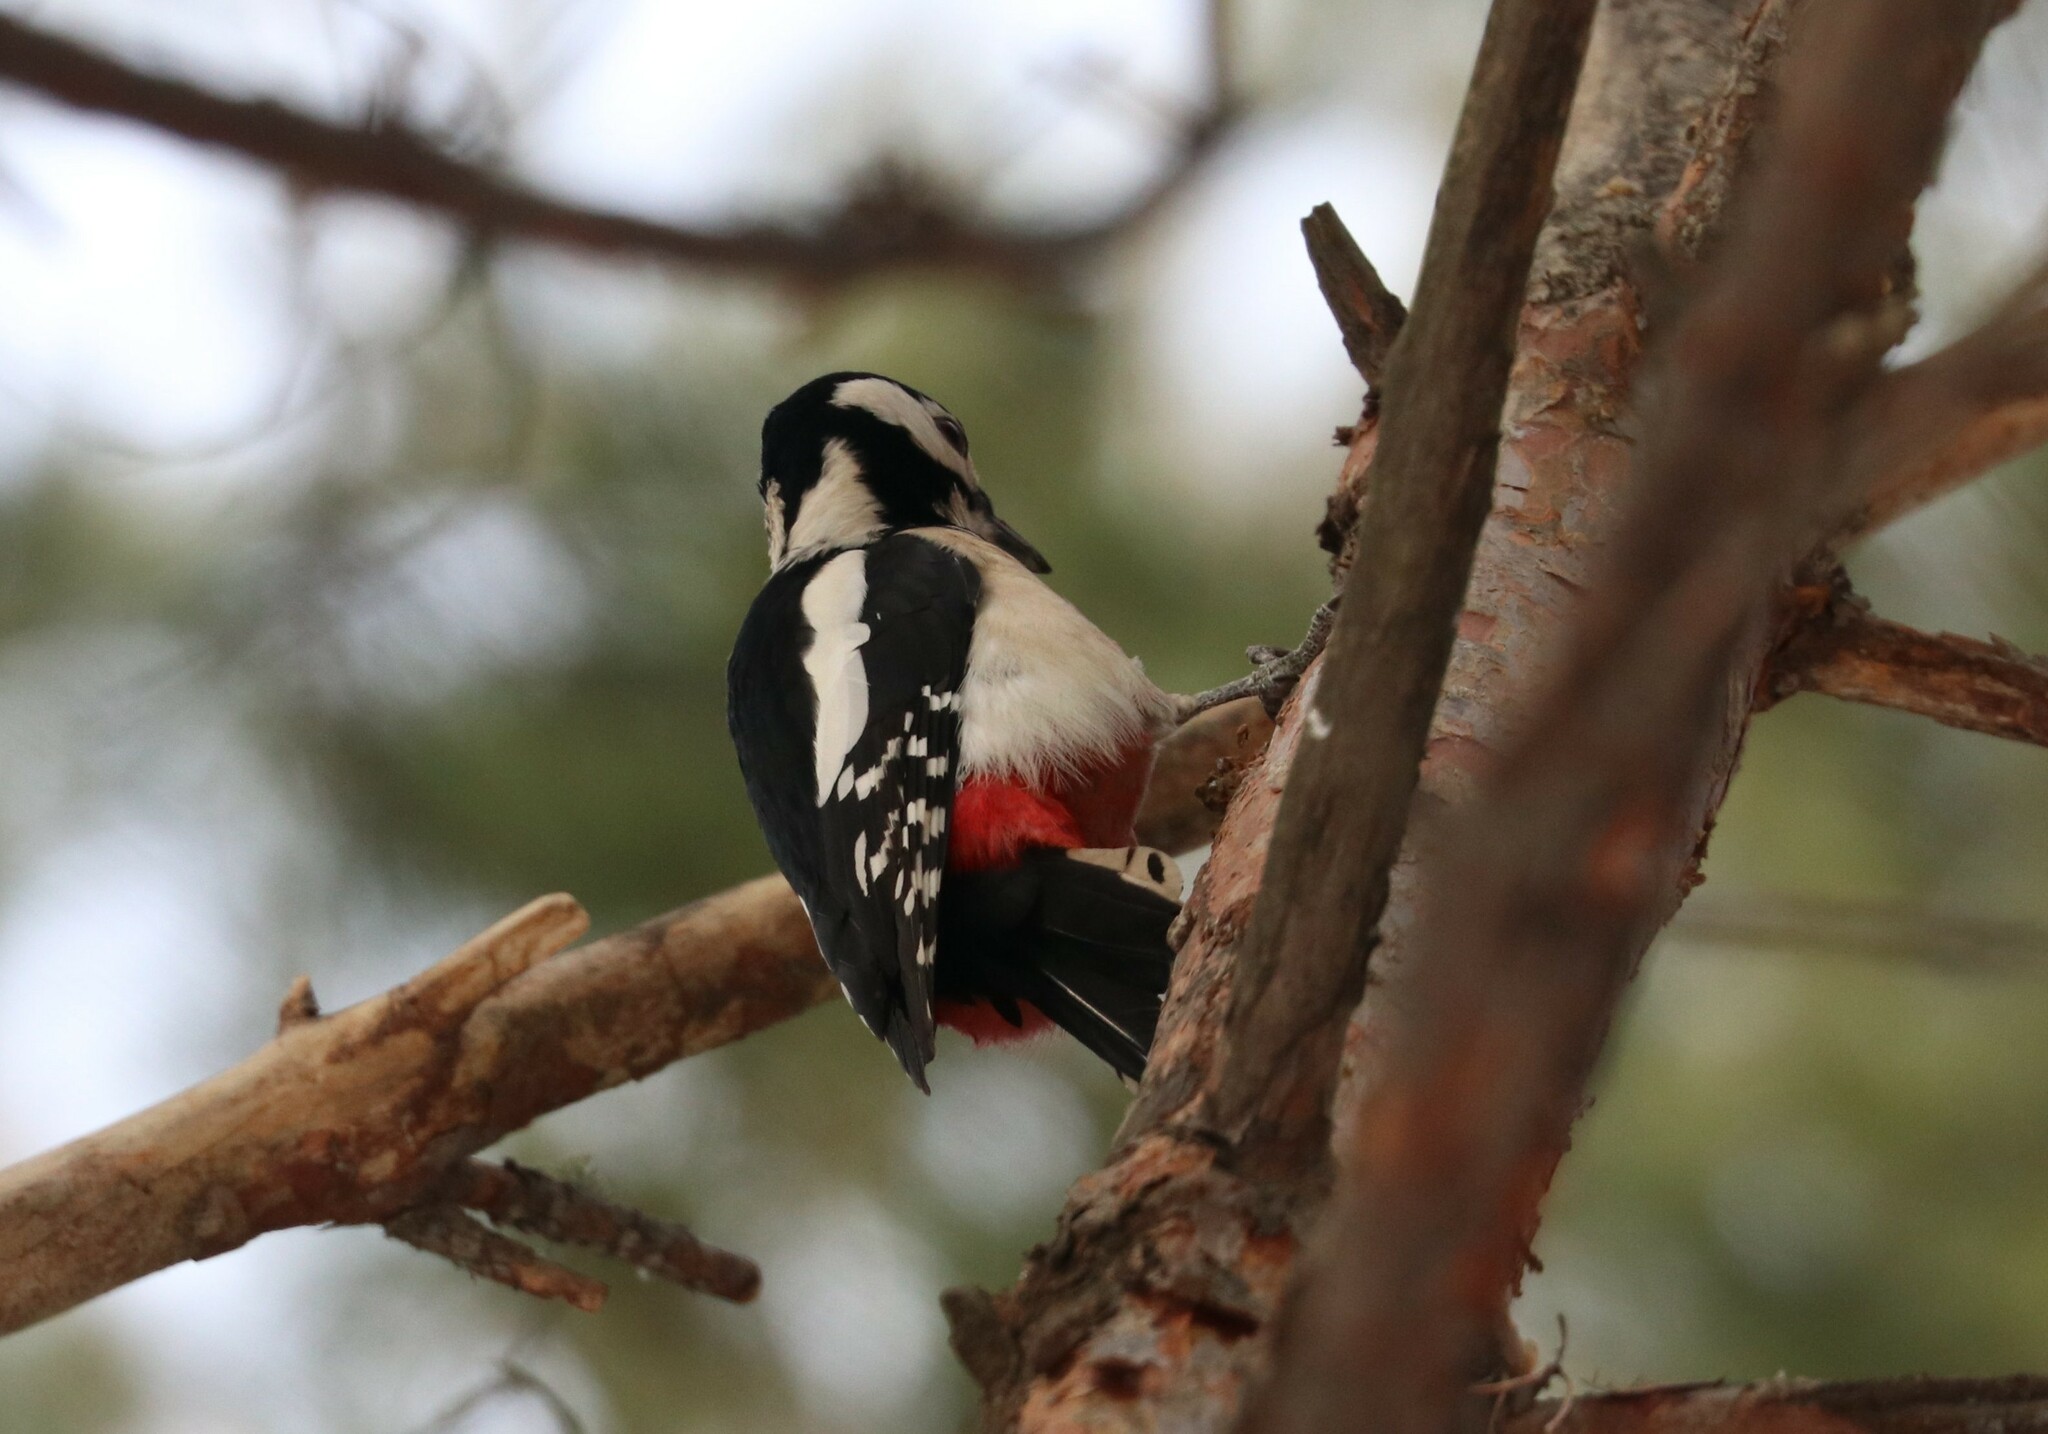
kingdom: Animalia
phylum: Chordata
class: Aves
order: Piciformes
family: Picidae
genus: Dendrocopos
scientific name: Dendrocopos major
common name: Great spotted woodpecker
